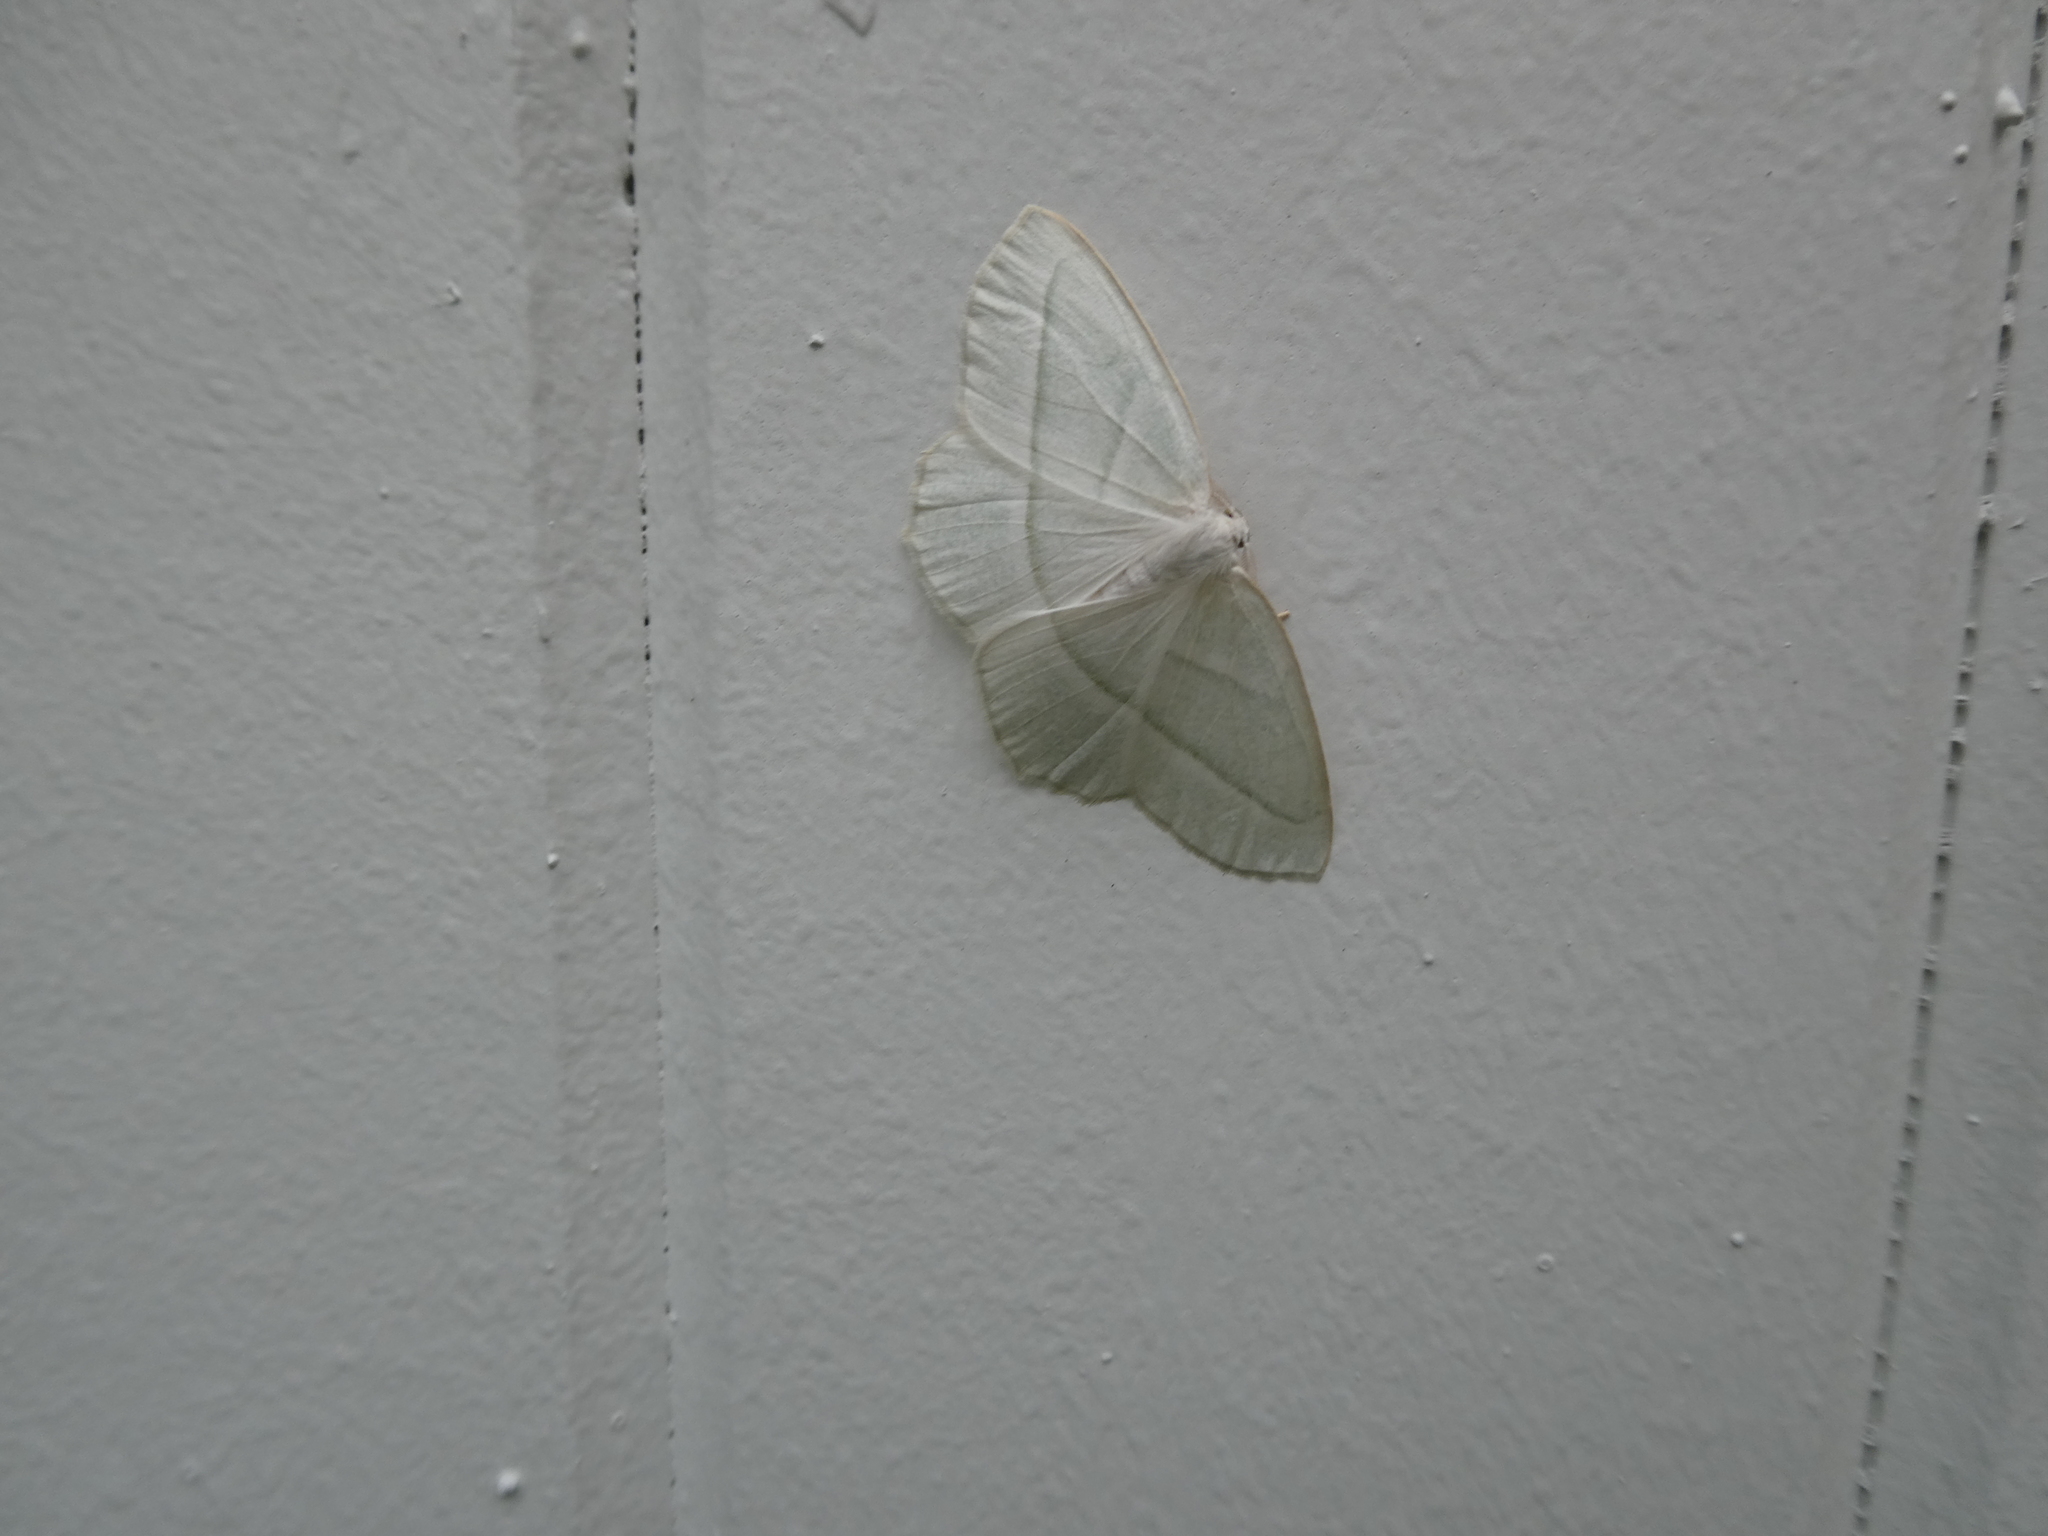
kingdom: Animalia
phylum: Arthropoda
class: Insecta
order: Lepidoptera
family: Geometridae
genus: Campaea
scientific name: Campaea perlata
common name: Fringed looper
